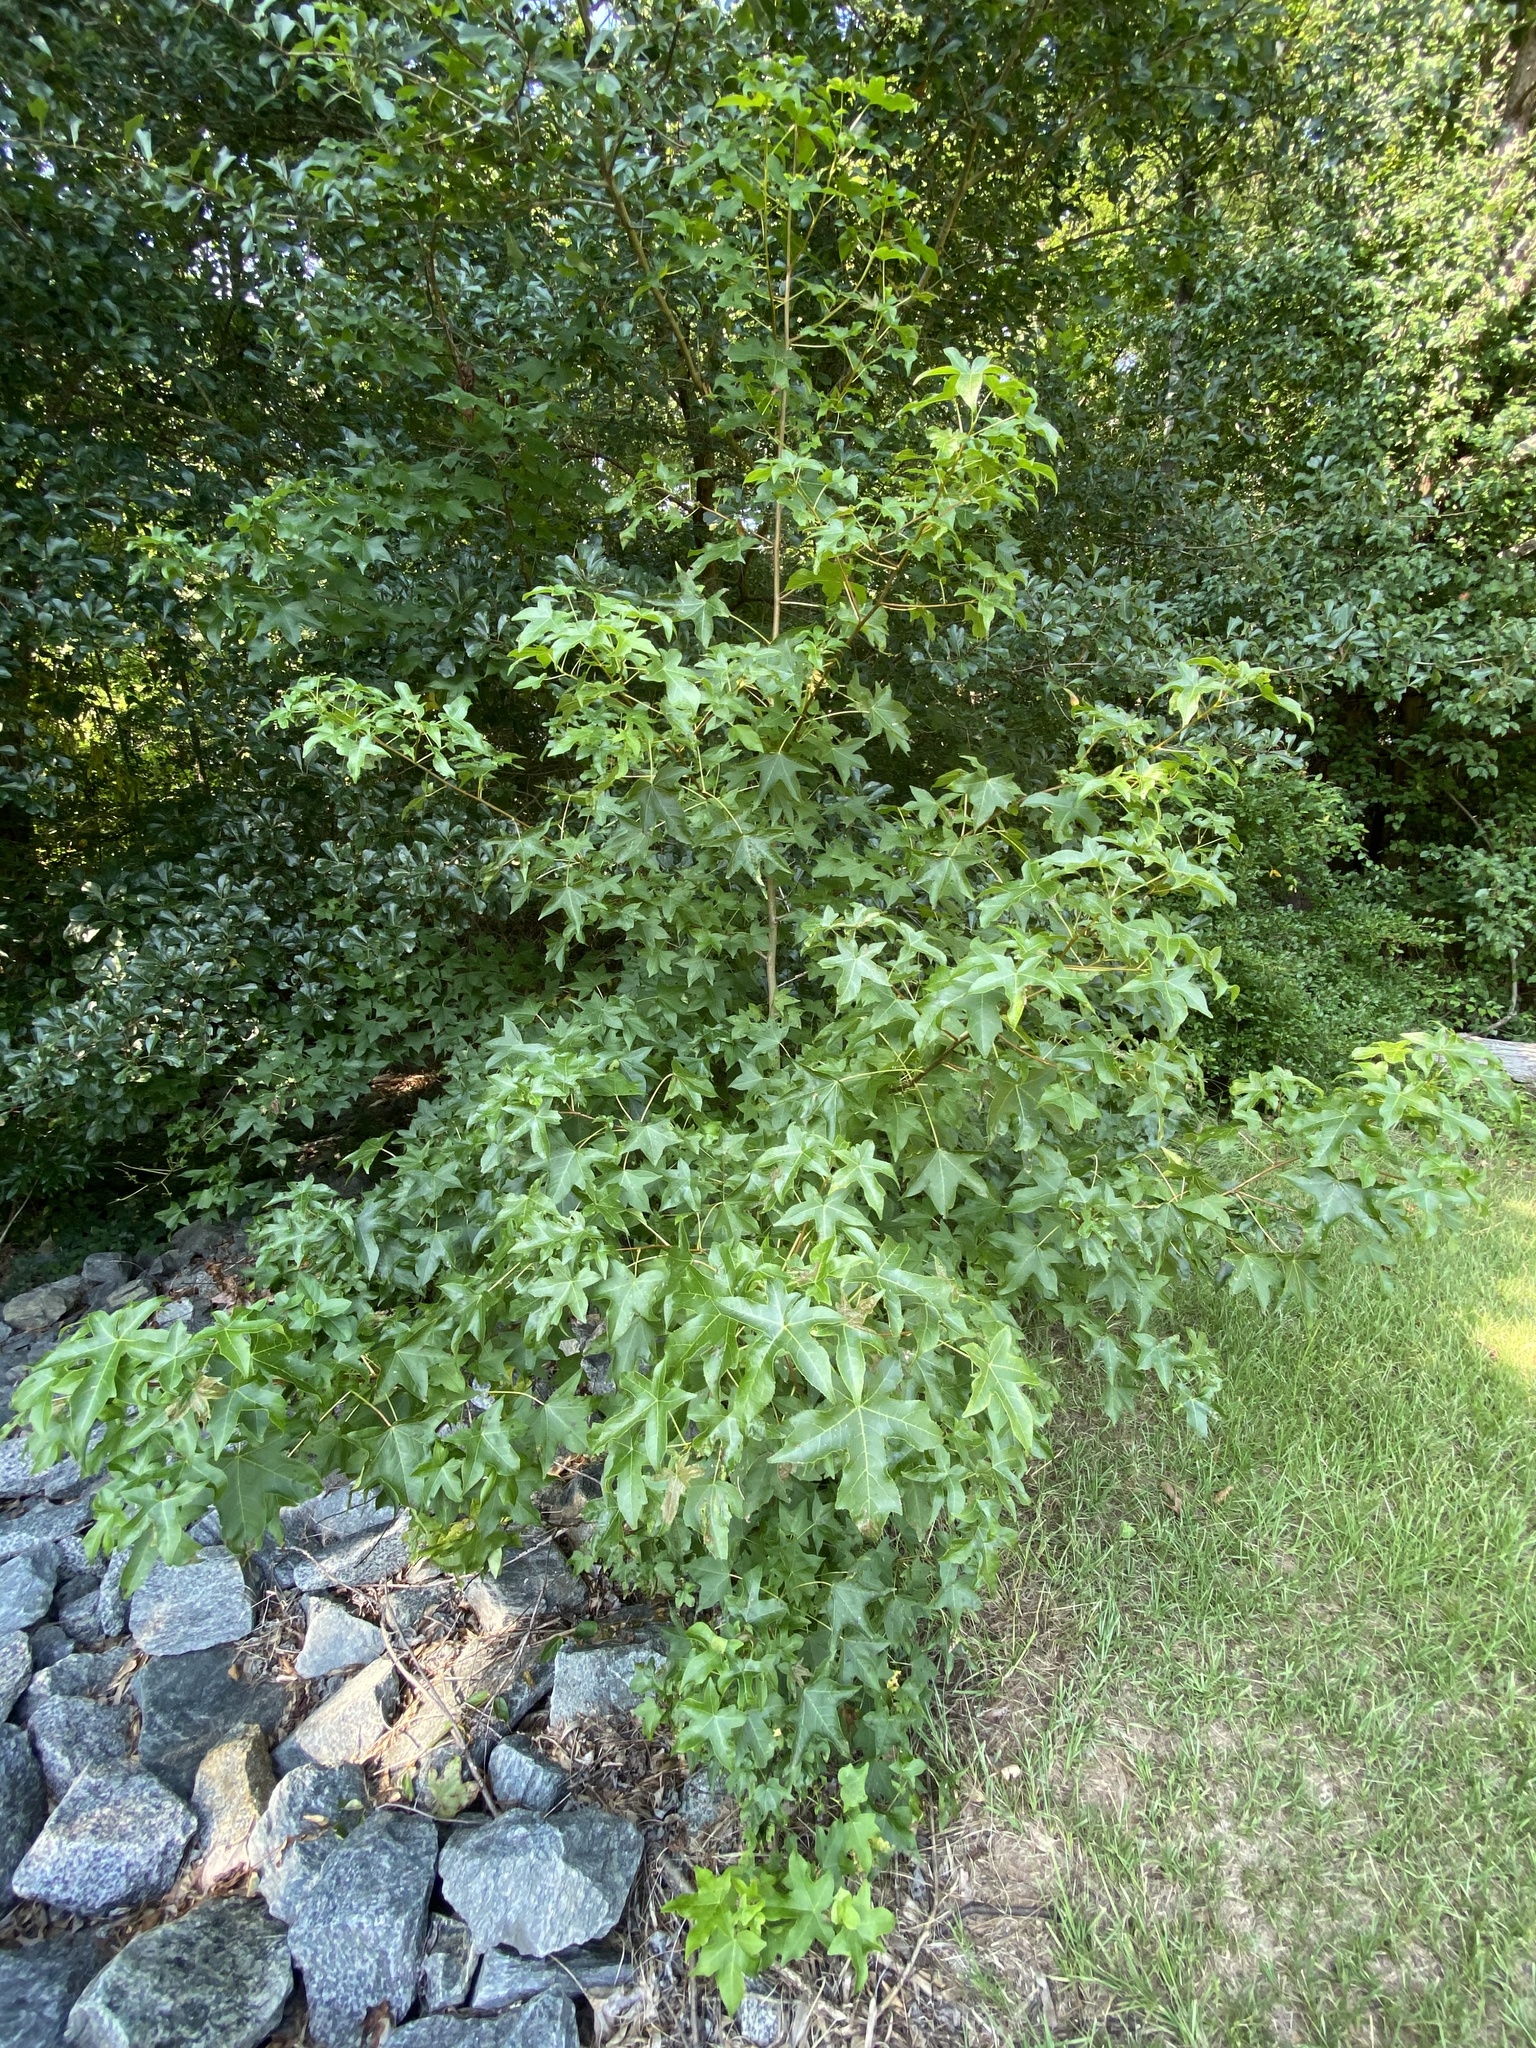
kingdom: Plantae
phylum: Tracheophyta
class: Magnoliopsida
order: Saxifragales
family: Altingiaceae
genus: Liquidambar
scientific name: Liquidambar styraciflua
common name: Sweet gum
